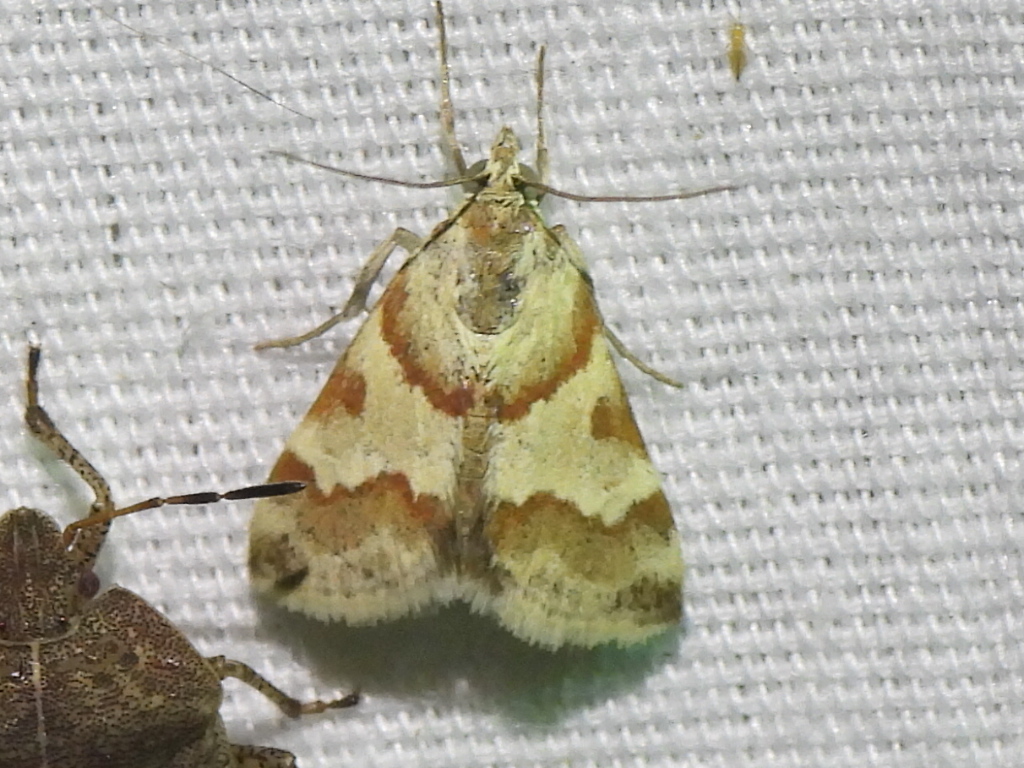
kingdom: Animalia
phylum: Arthropoda
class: Insecta
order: Lepidoptera
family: Crambidae
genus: Noctuelia
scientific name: Noctuelia Mimoschinia rufofascialis
